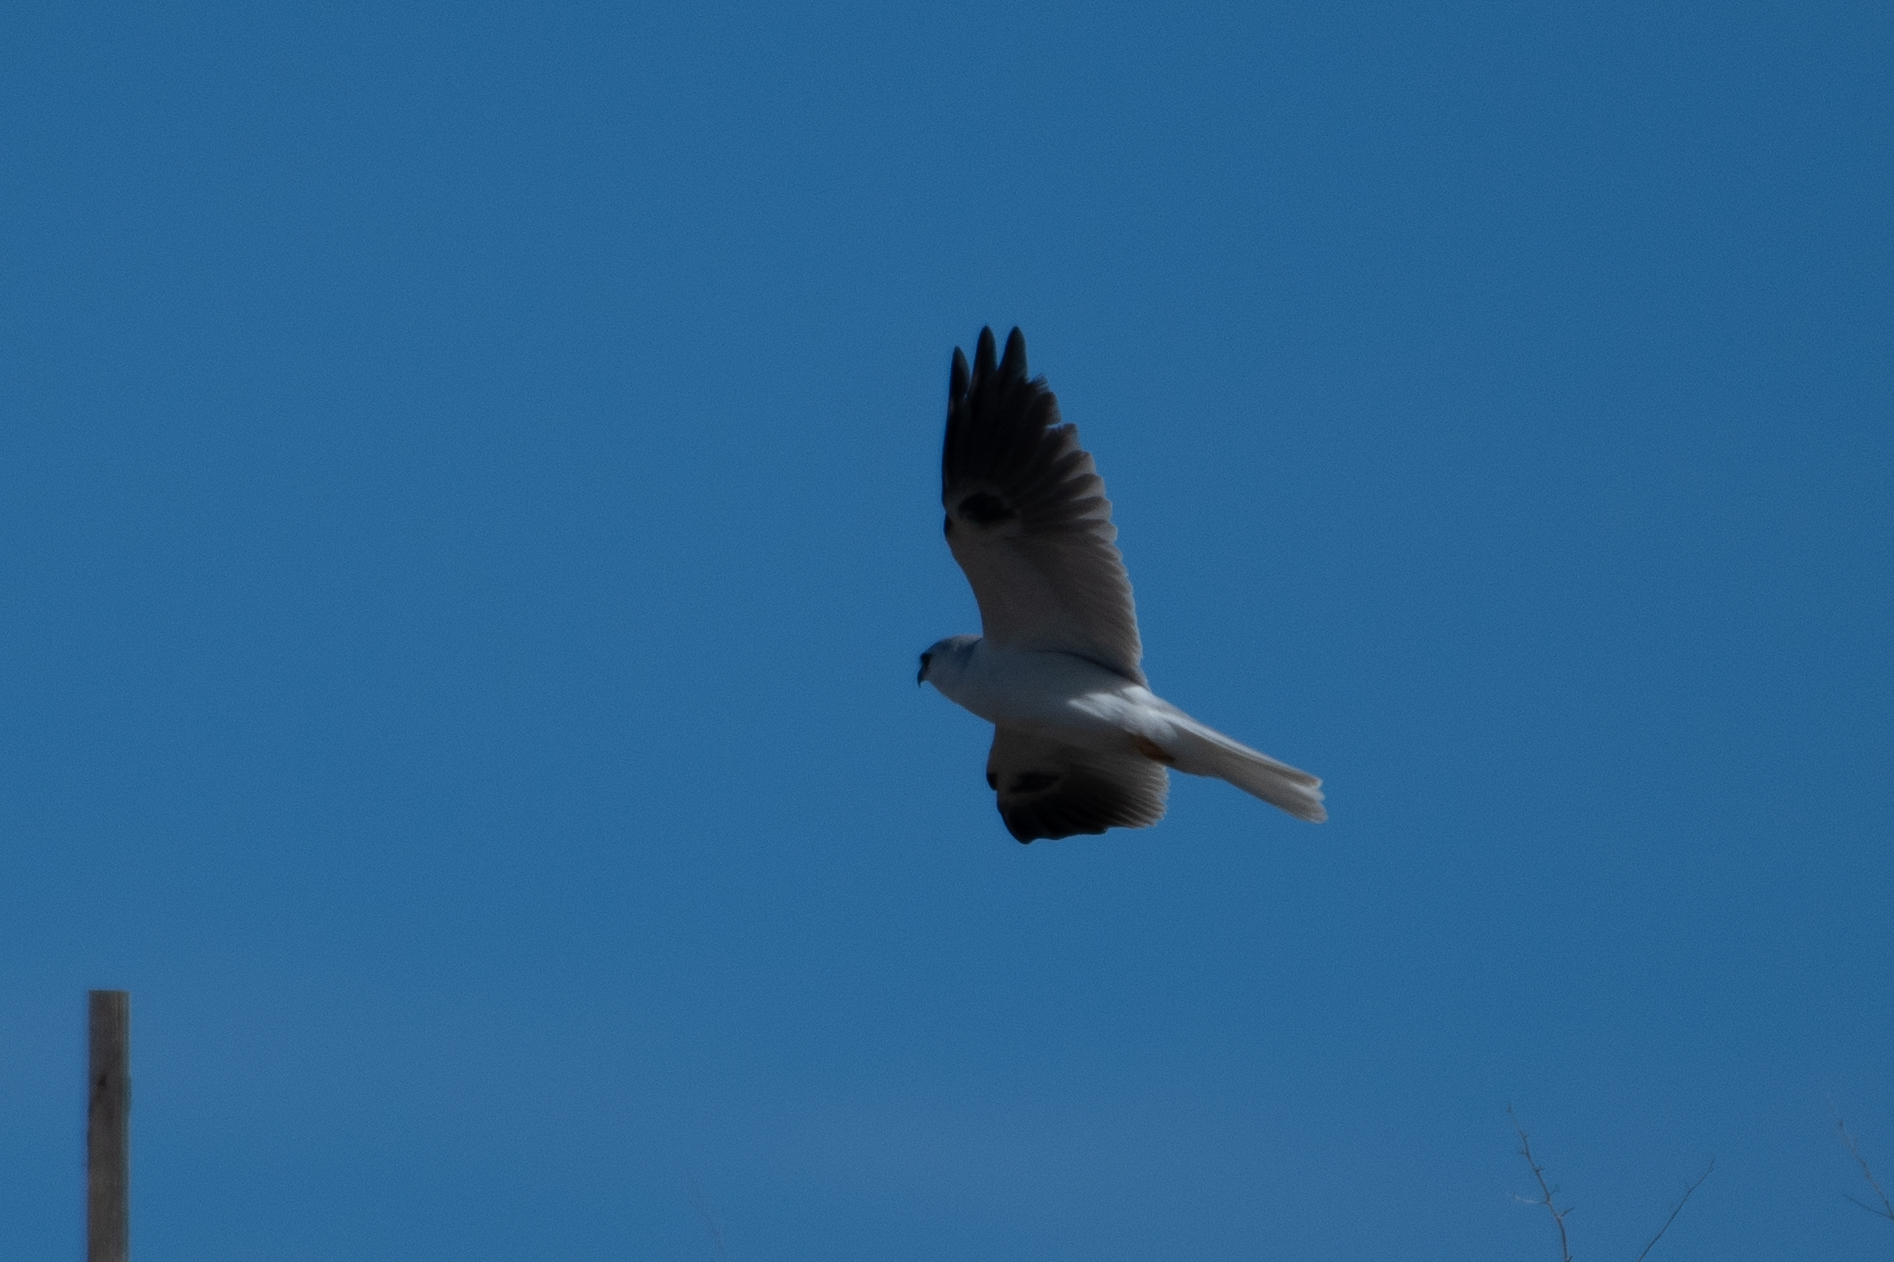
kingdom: Animalia
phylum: Chordata
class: Aves
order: Accipitriformes
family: Accipitridae
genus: Elanus
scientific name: Elanus leucurus
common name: White-tailed kite
